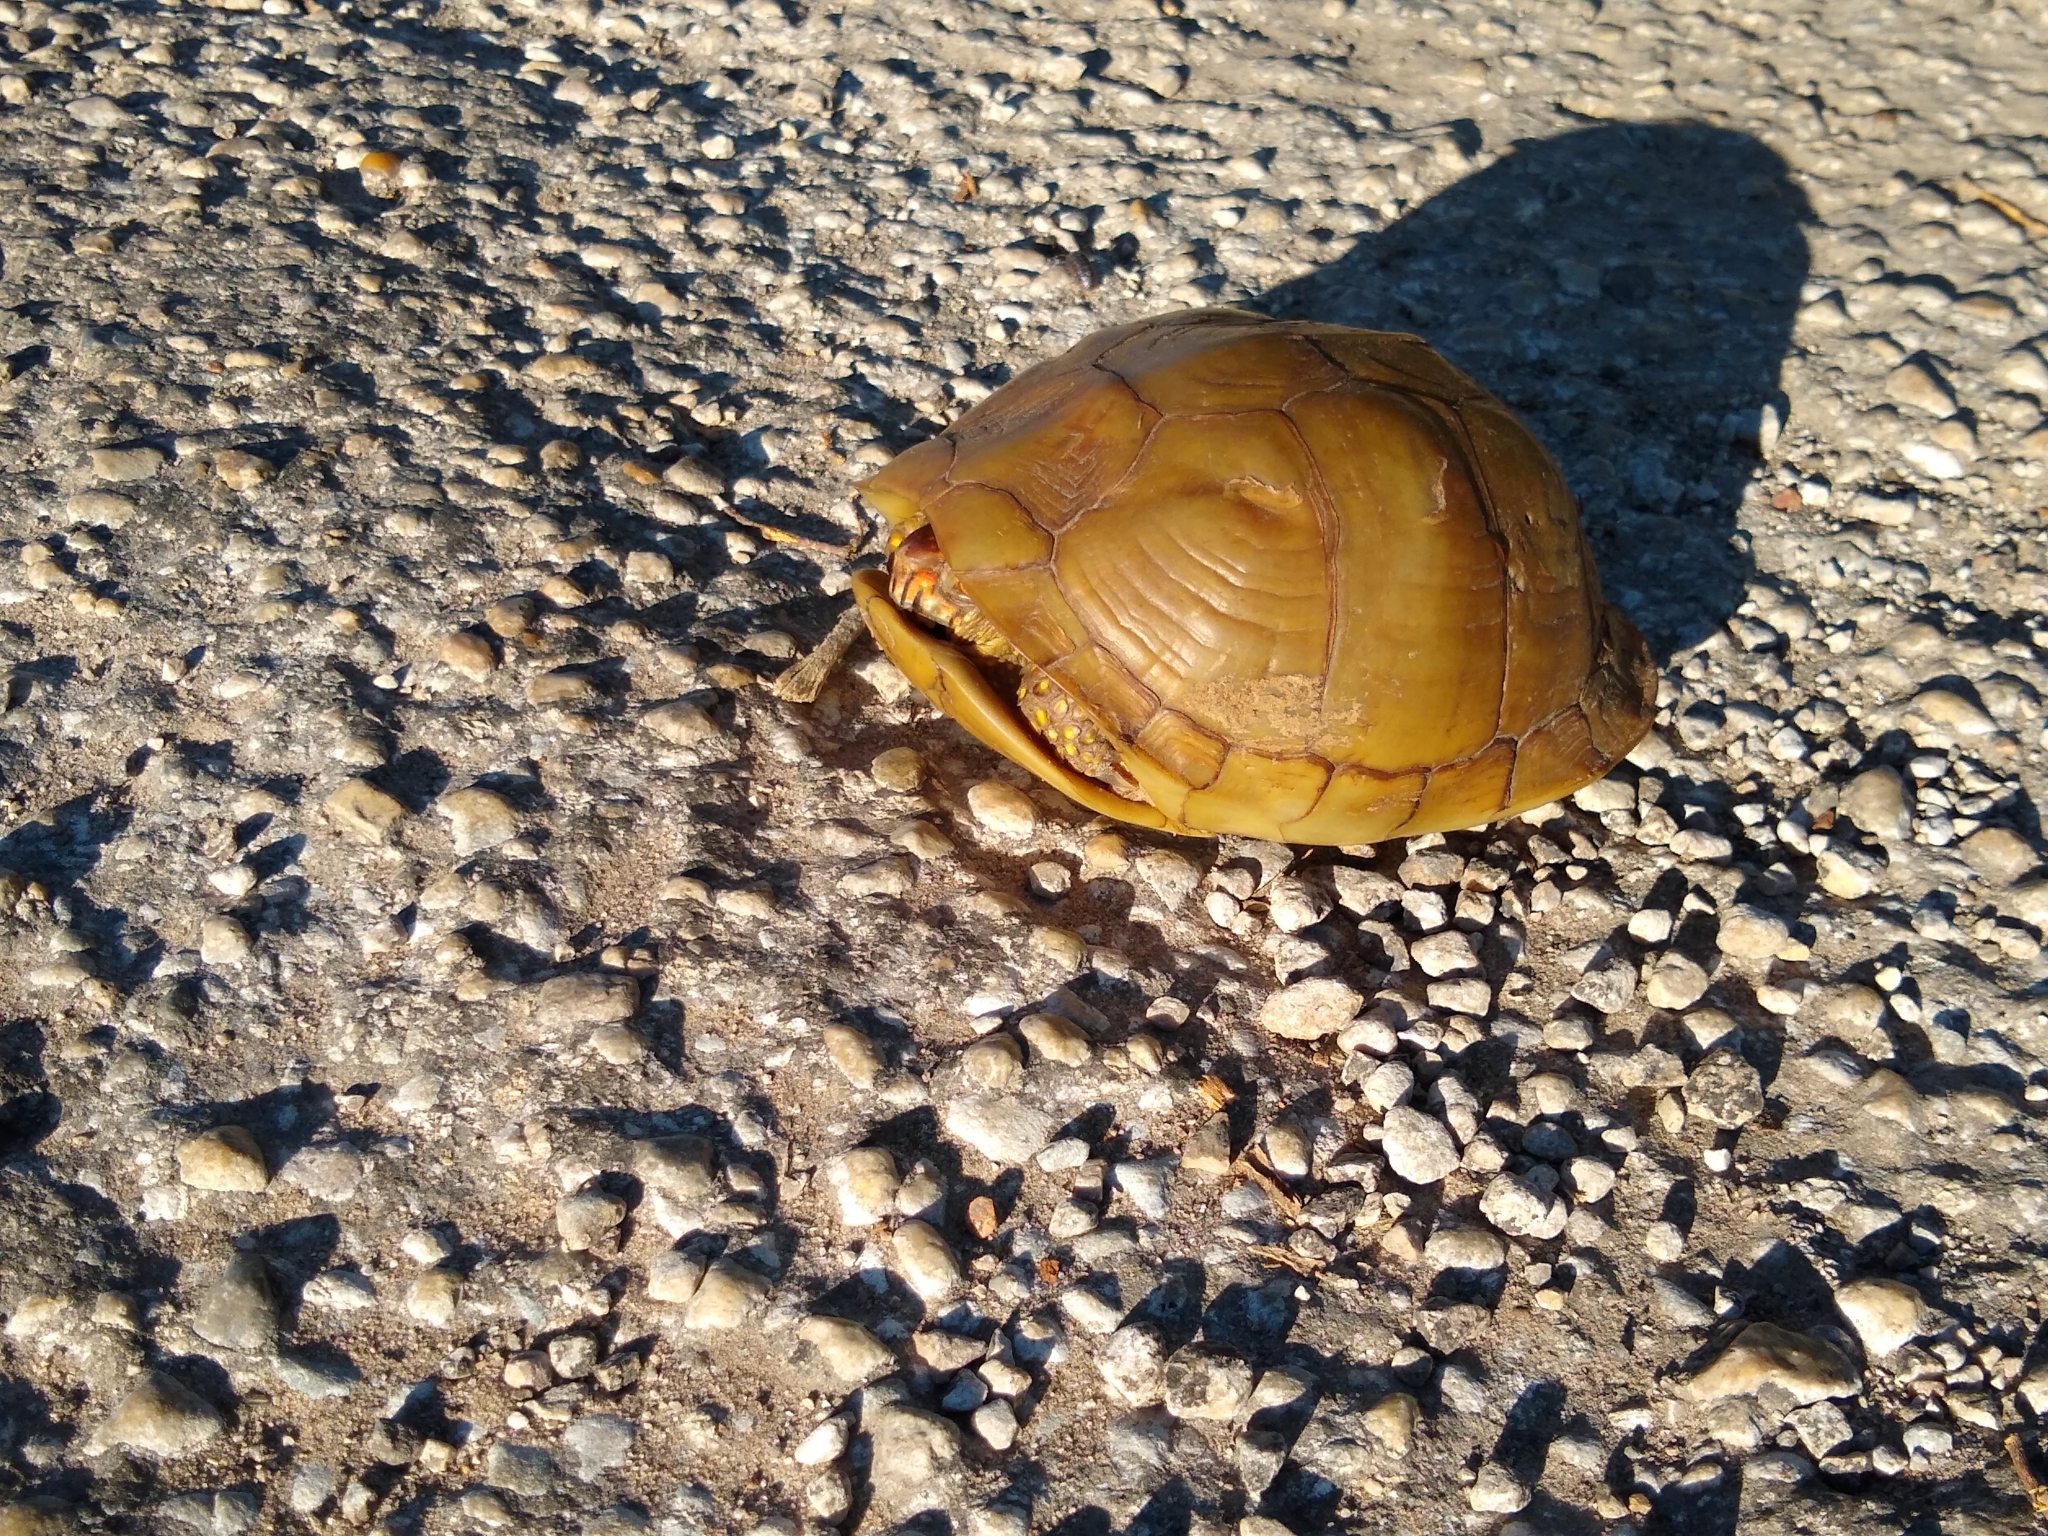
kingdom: Animalia
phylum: Chordata
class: Testudines
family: Emydidae
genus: Terrapene
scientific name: Terrapene carolina
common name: Common box turtle
